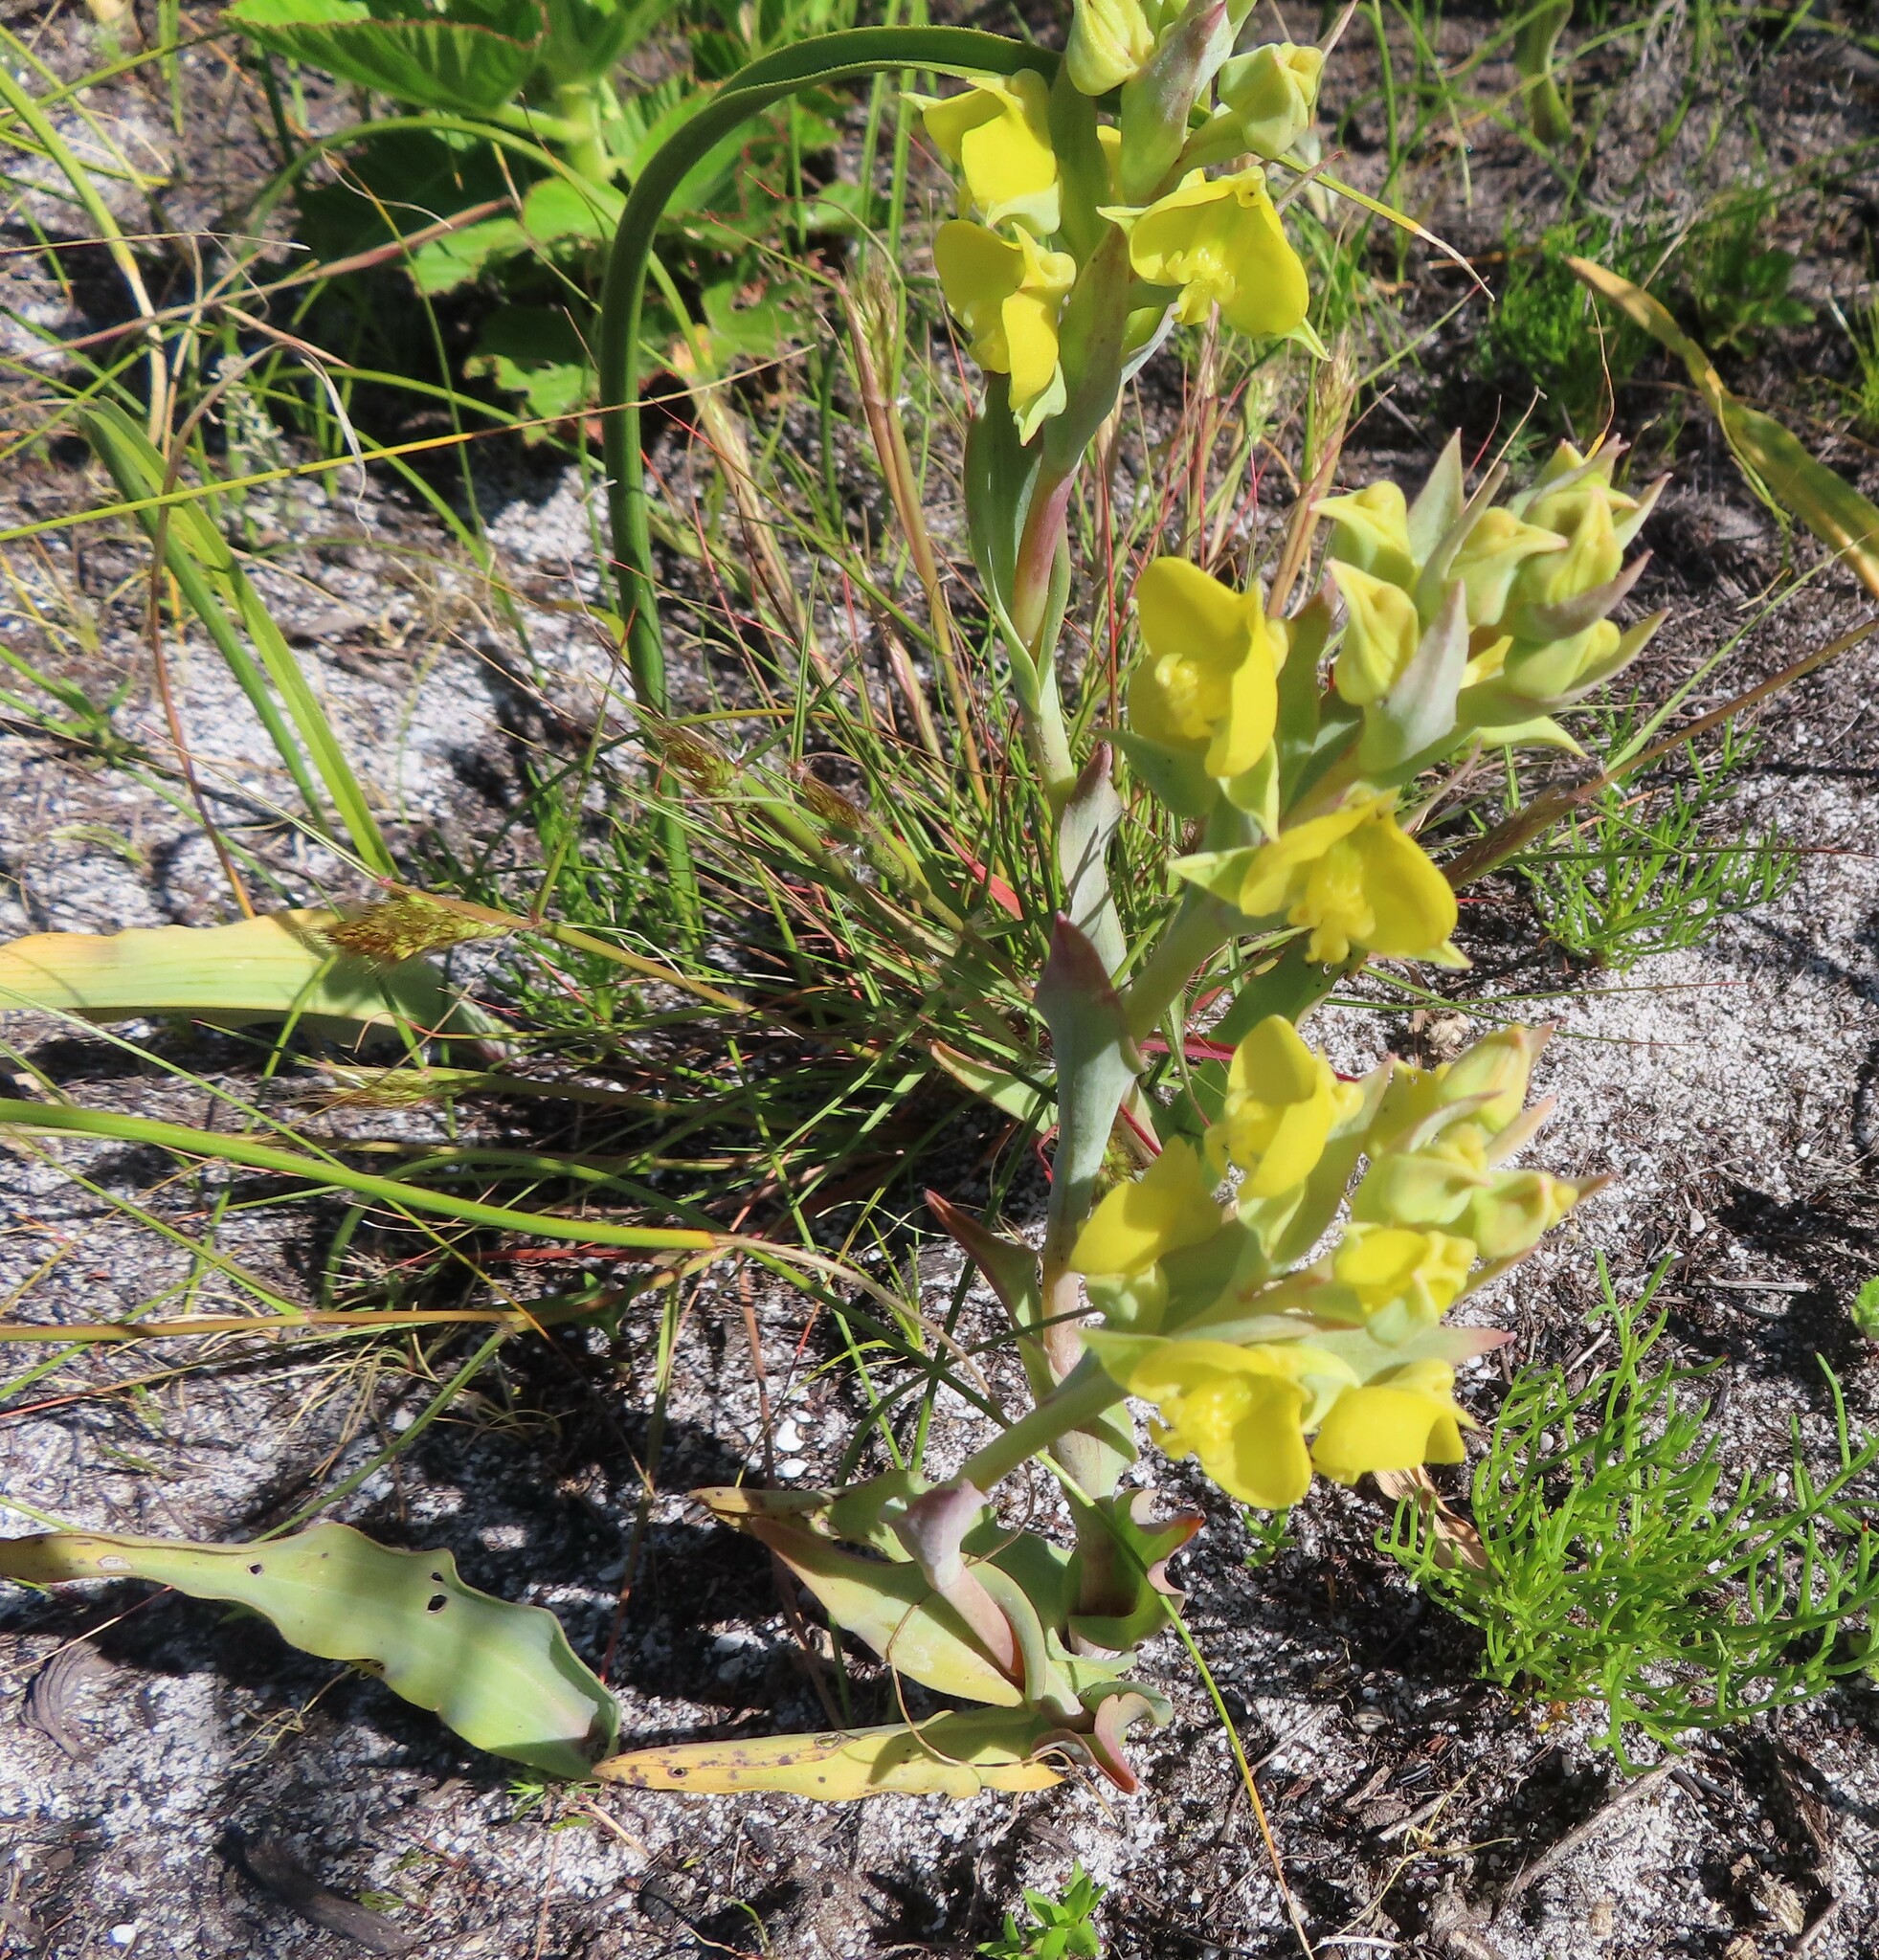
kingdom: Plantae
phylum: Tracheophyta
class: Liliopsida
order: Asparagales
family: Orchidaceae
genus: Pterygodium
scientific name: Pterygodium acutifolium
